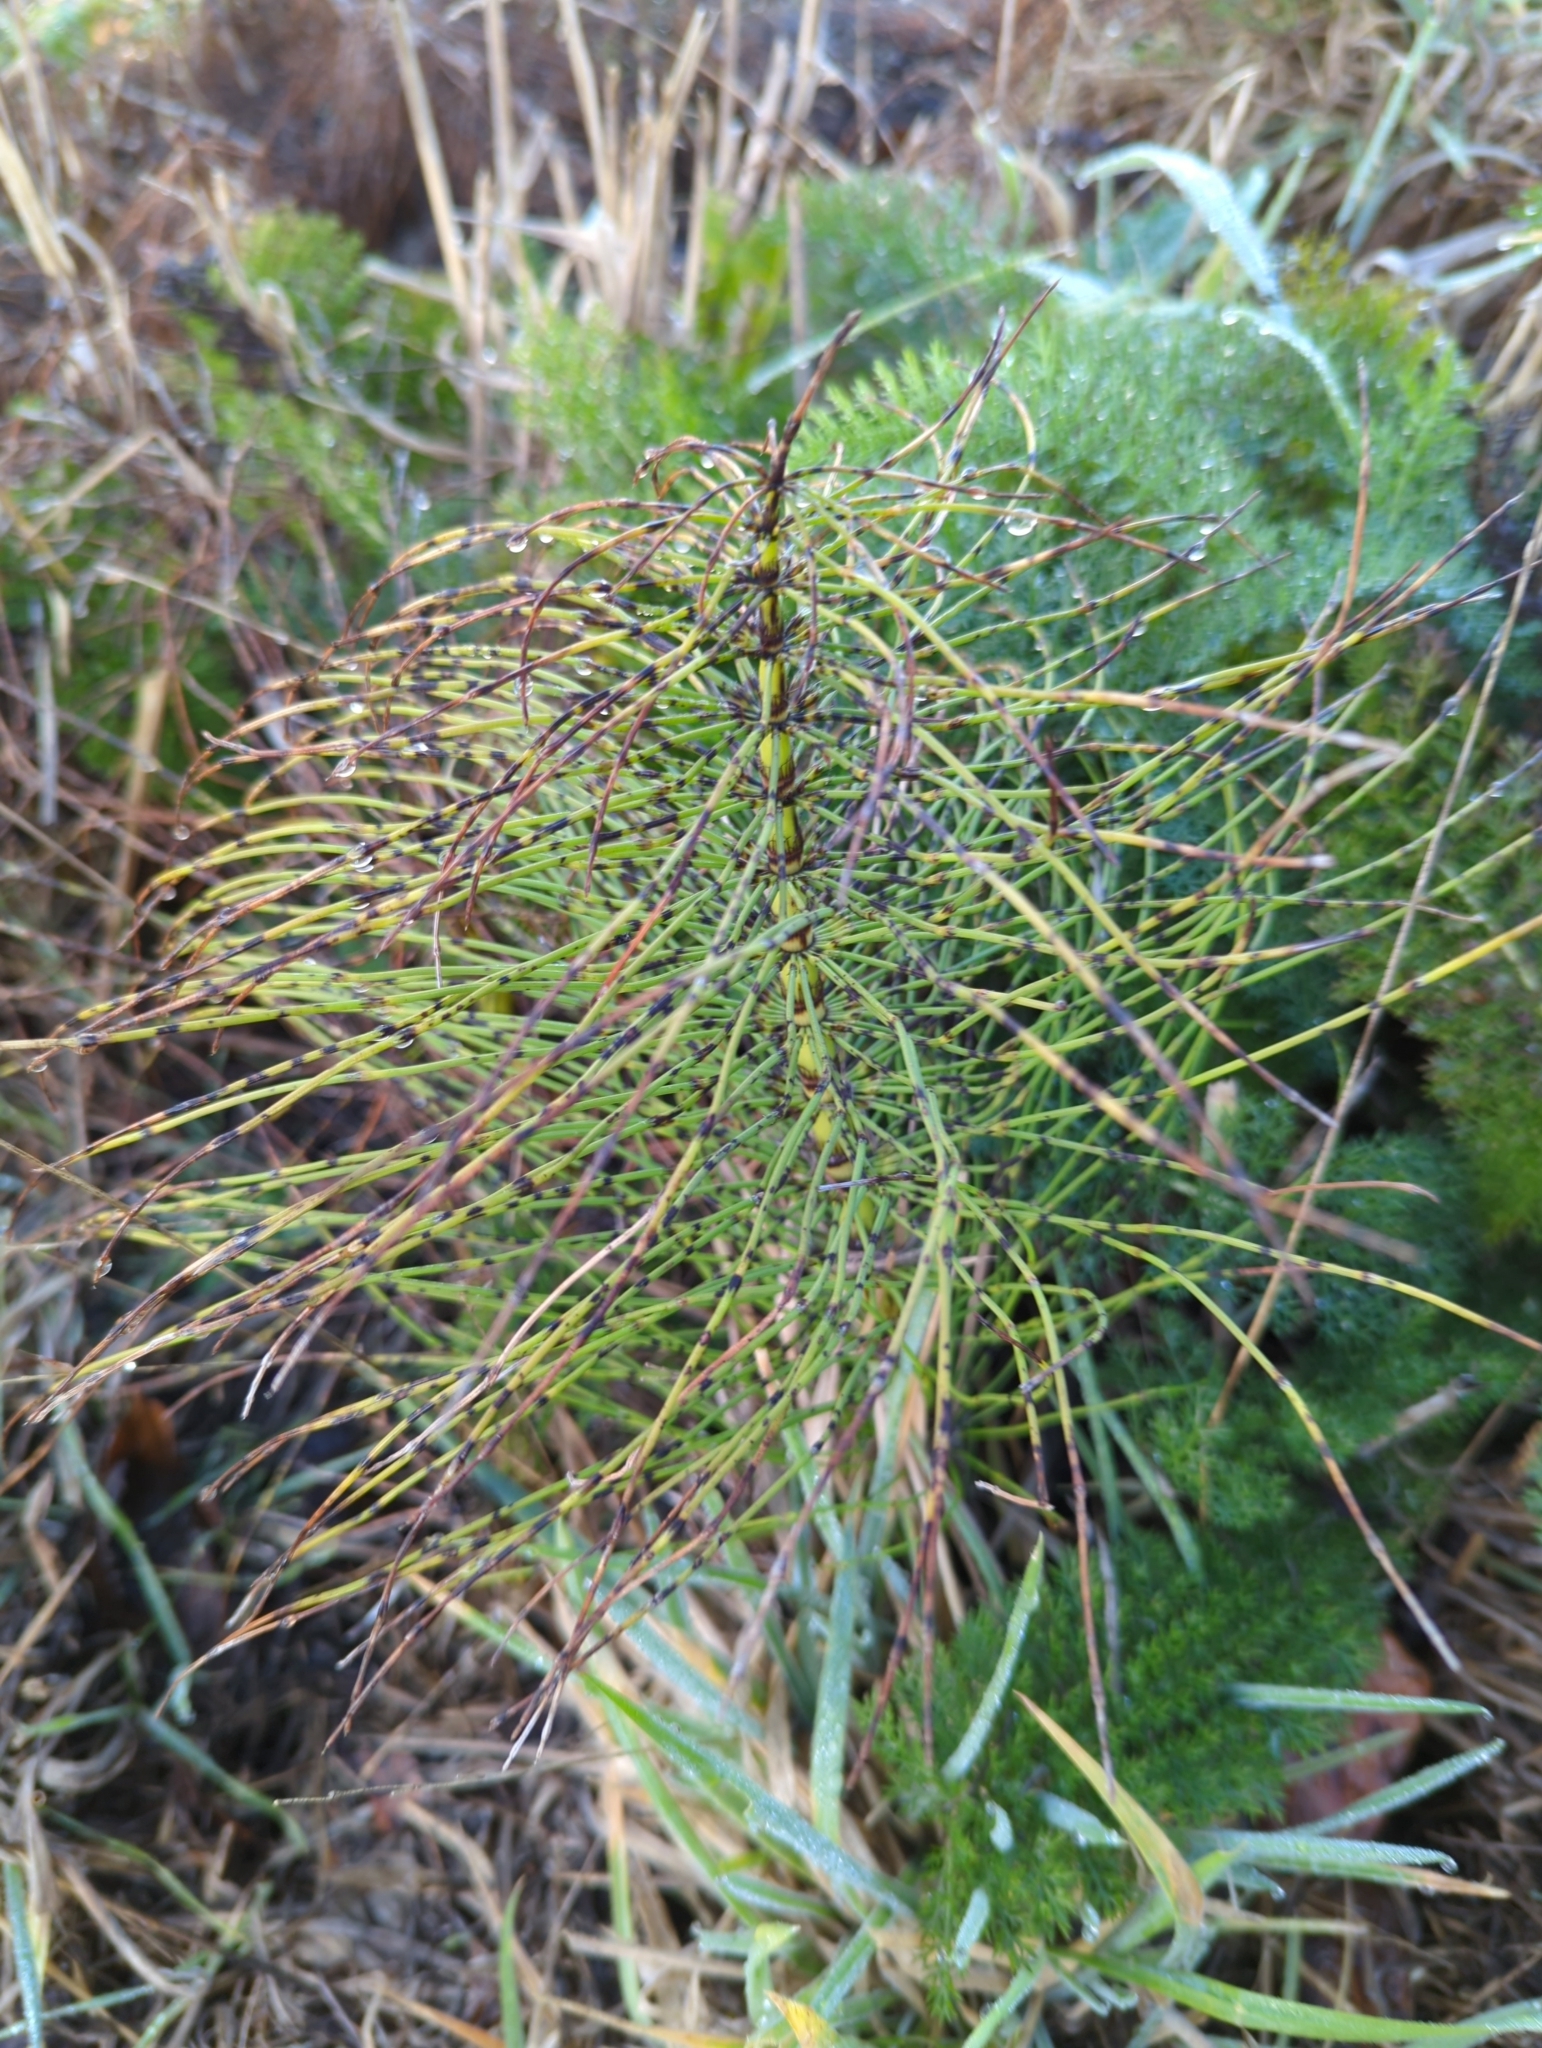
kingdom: Plantae
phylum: Tracheophyta
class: Polypodiopsida
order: Equisetales
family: Equisetaceae
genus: Equisetum
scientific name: Equisetum telmateia
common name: Great horsetail
